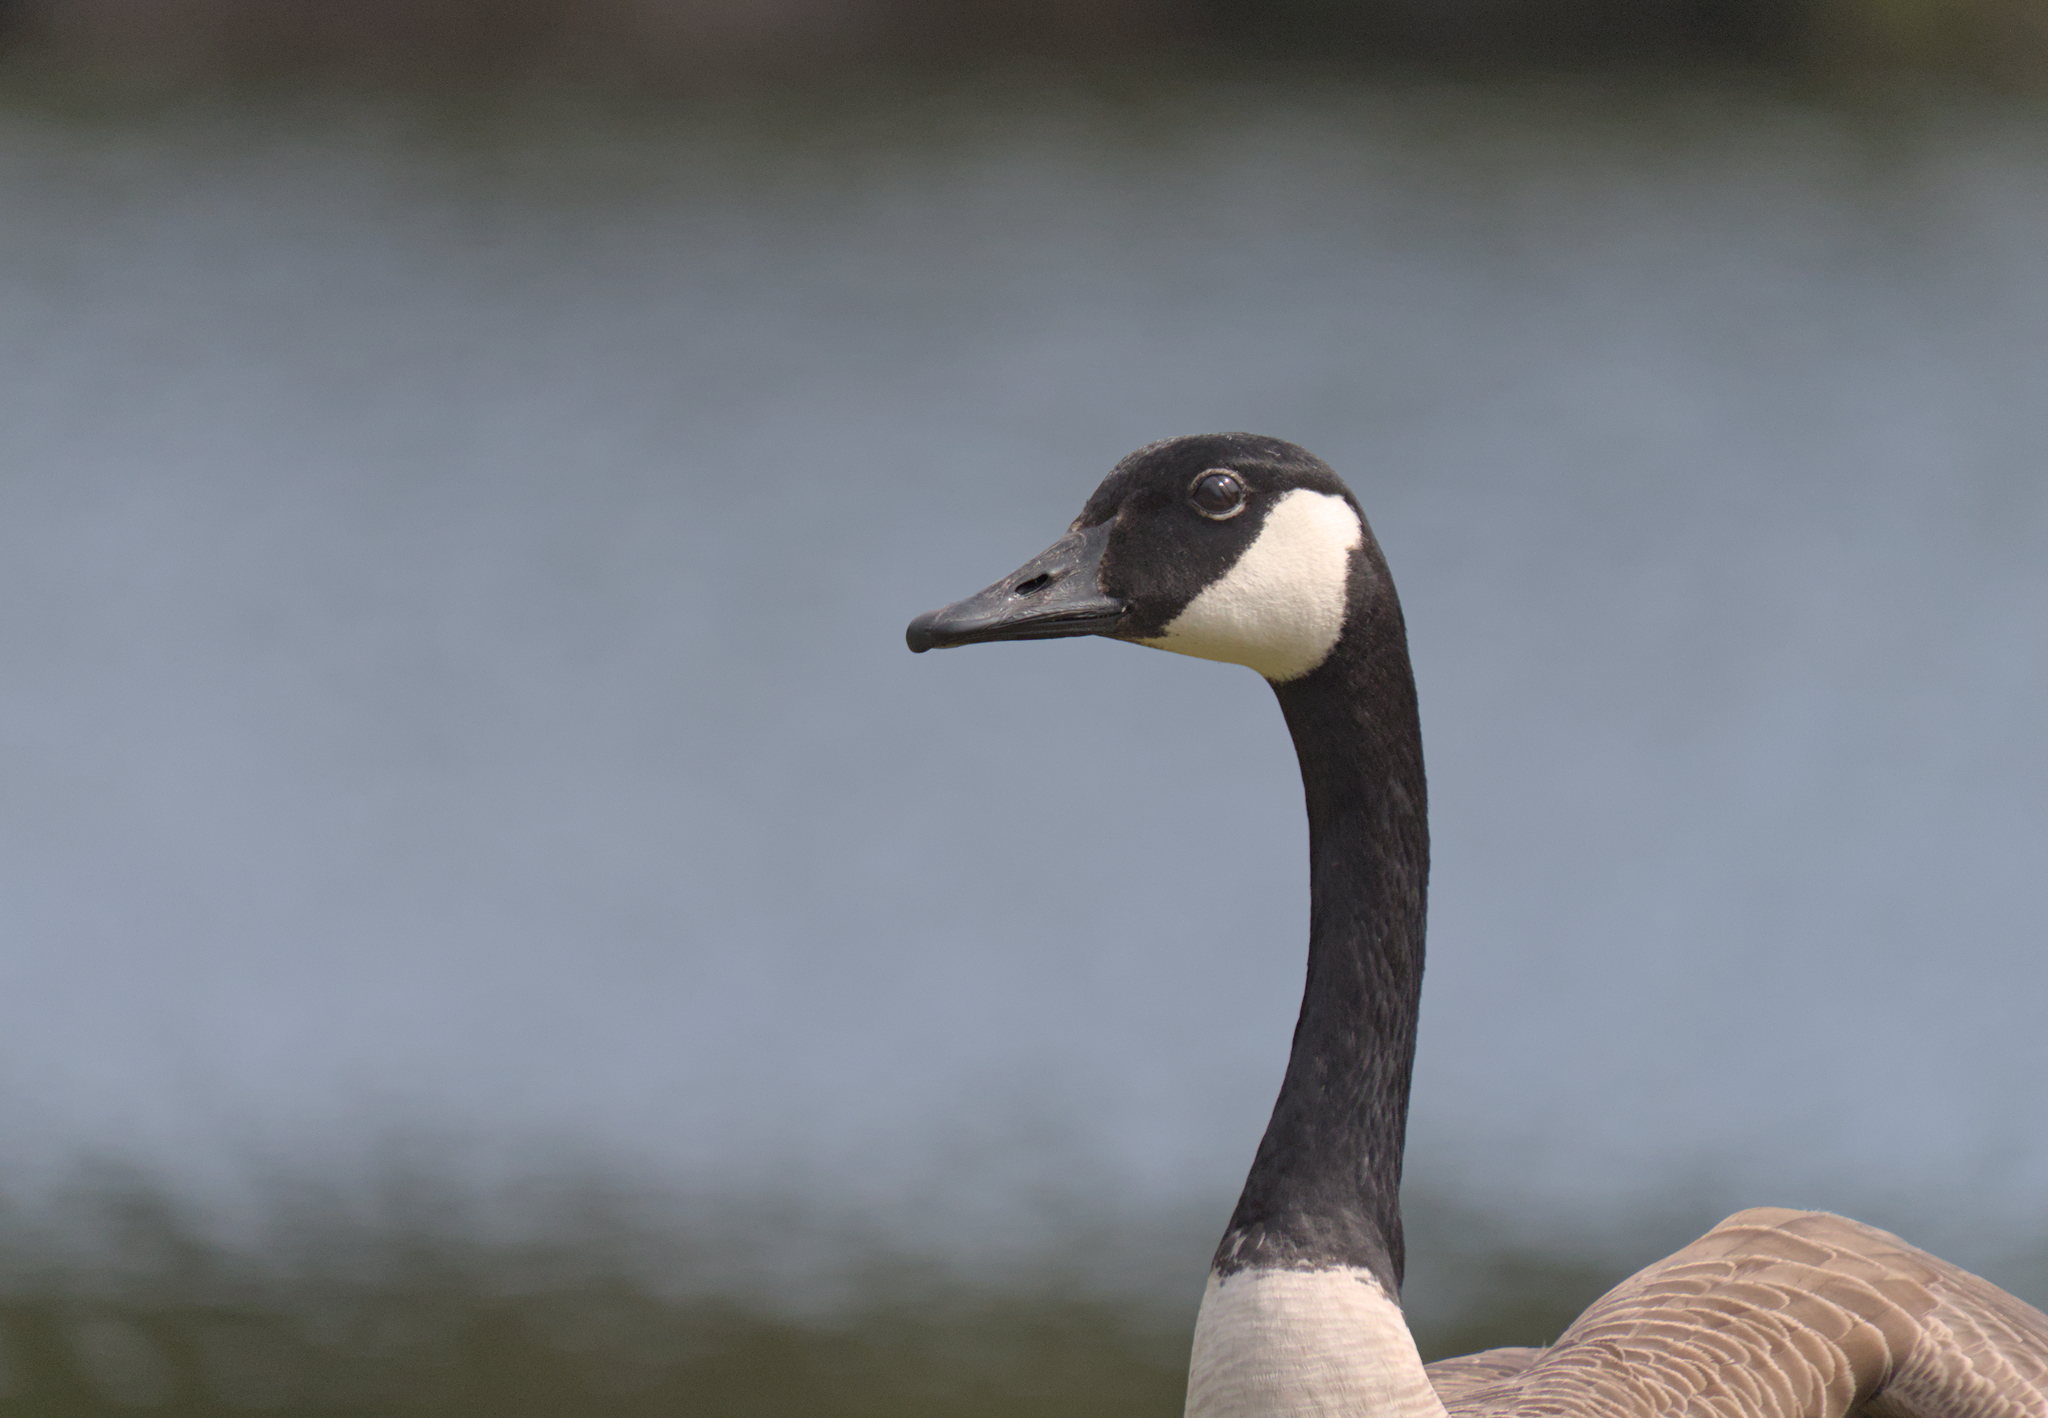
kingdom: Animalia
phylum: Chordata
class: Aves
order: Anseriformes
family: Anatidae
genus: Branta
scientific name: Branta canadensis
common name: Canada goose
